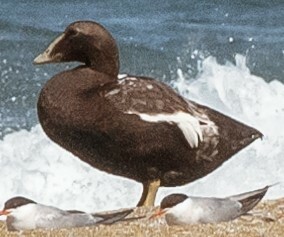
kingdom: Animalia
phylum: Chordata
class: Aves
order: Anseriformes
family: Anatidae
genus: Somateria
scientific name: Somateria mollissima
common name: Common eider
